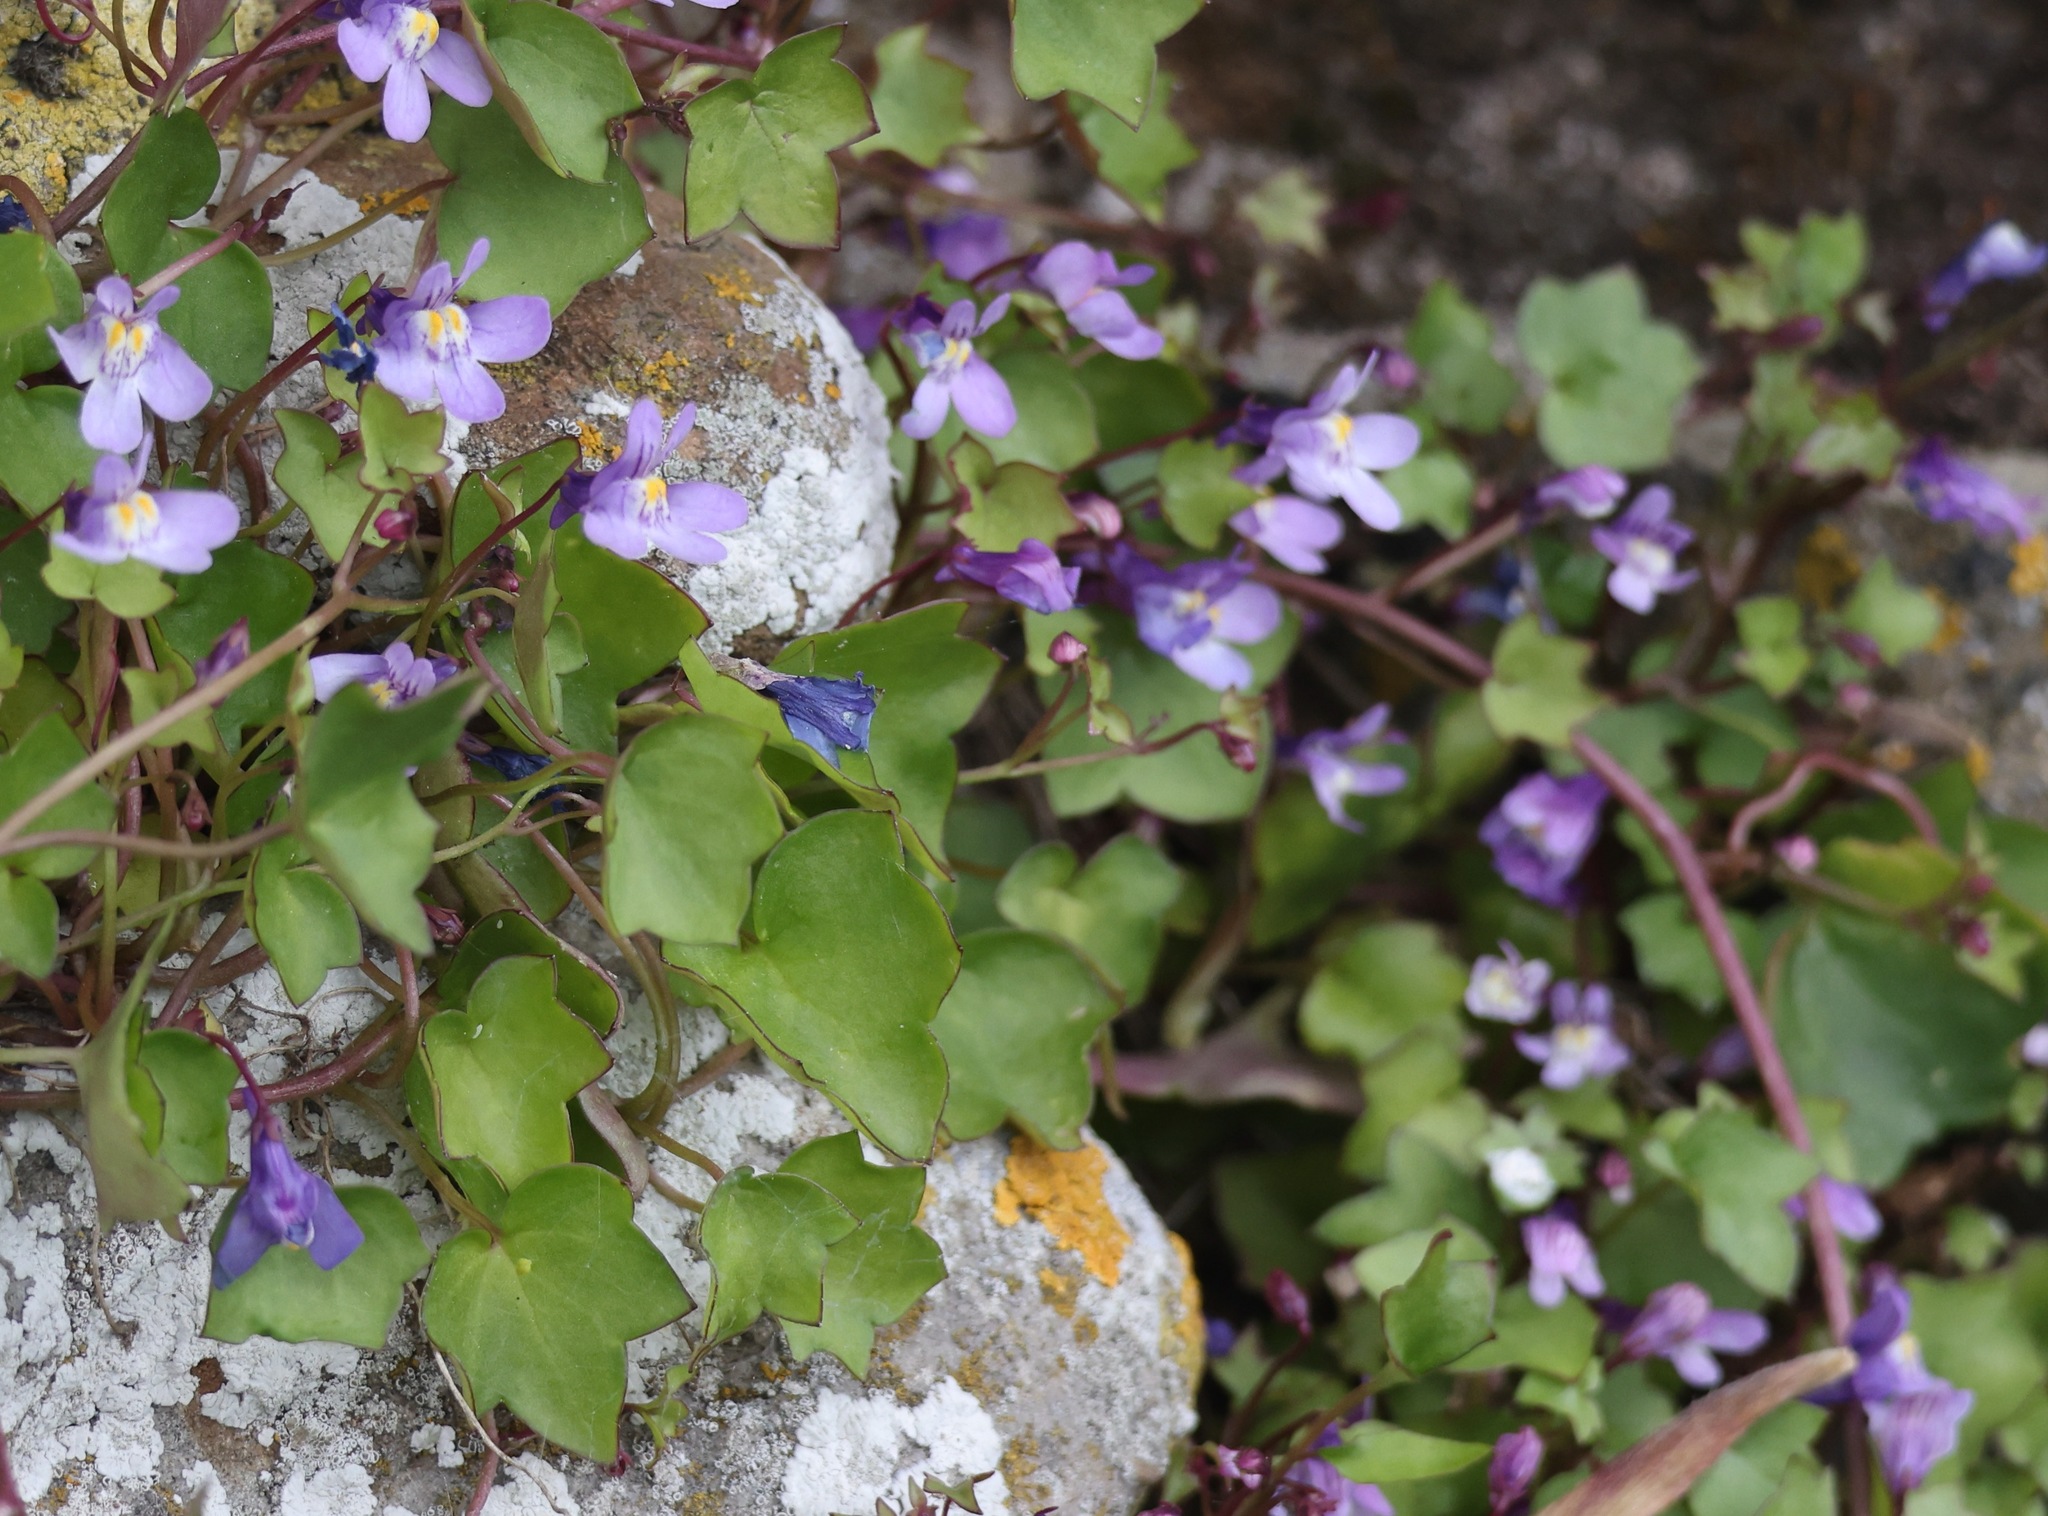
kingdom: Plantae
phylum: Tracheophyta
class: Magnoliopsida
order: Lamiales
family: Plantaginaceae
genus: Cymbalaria
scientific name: Cymbalaria muralis
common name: Ivy-leaved toadflax
